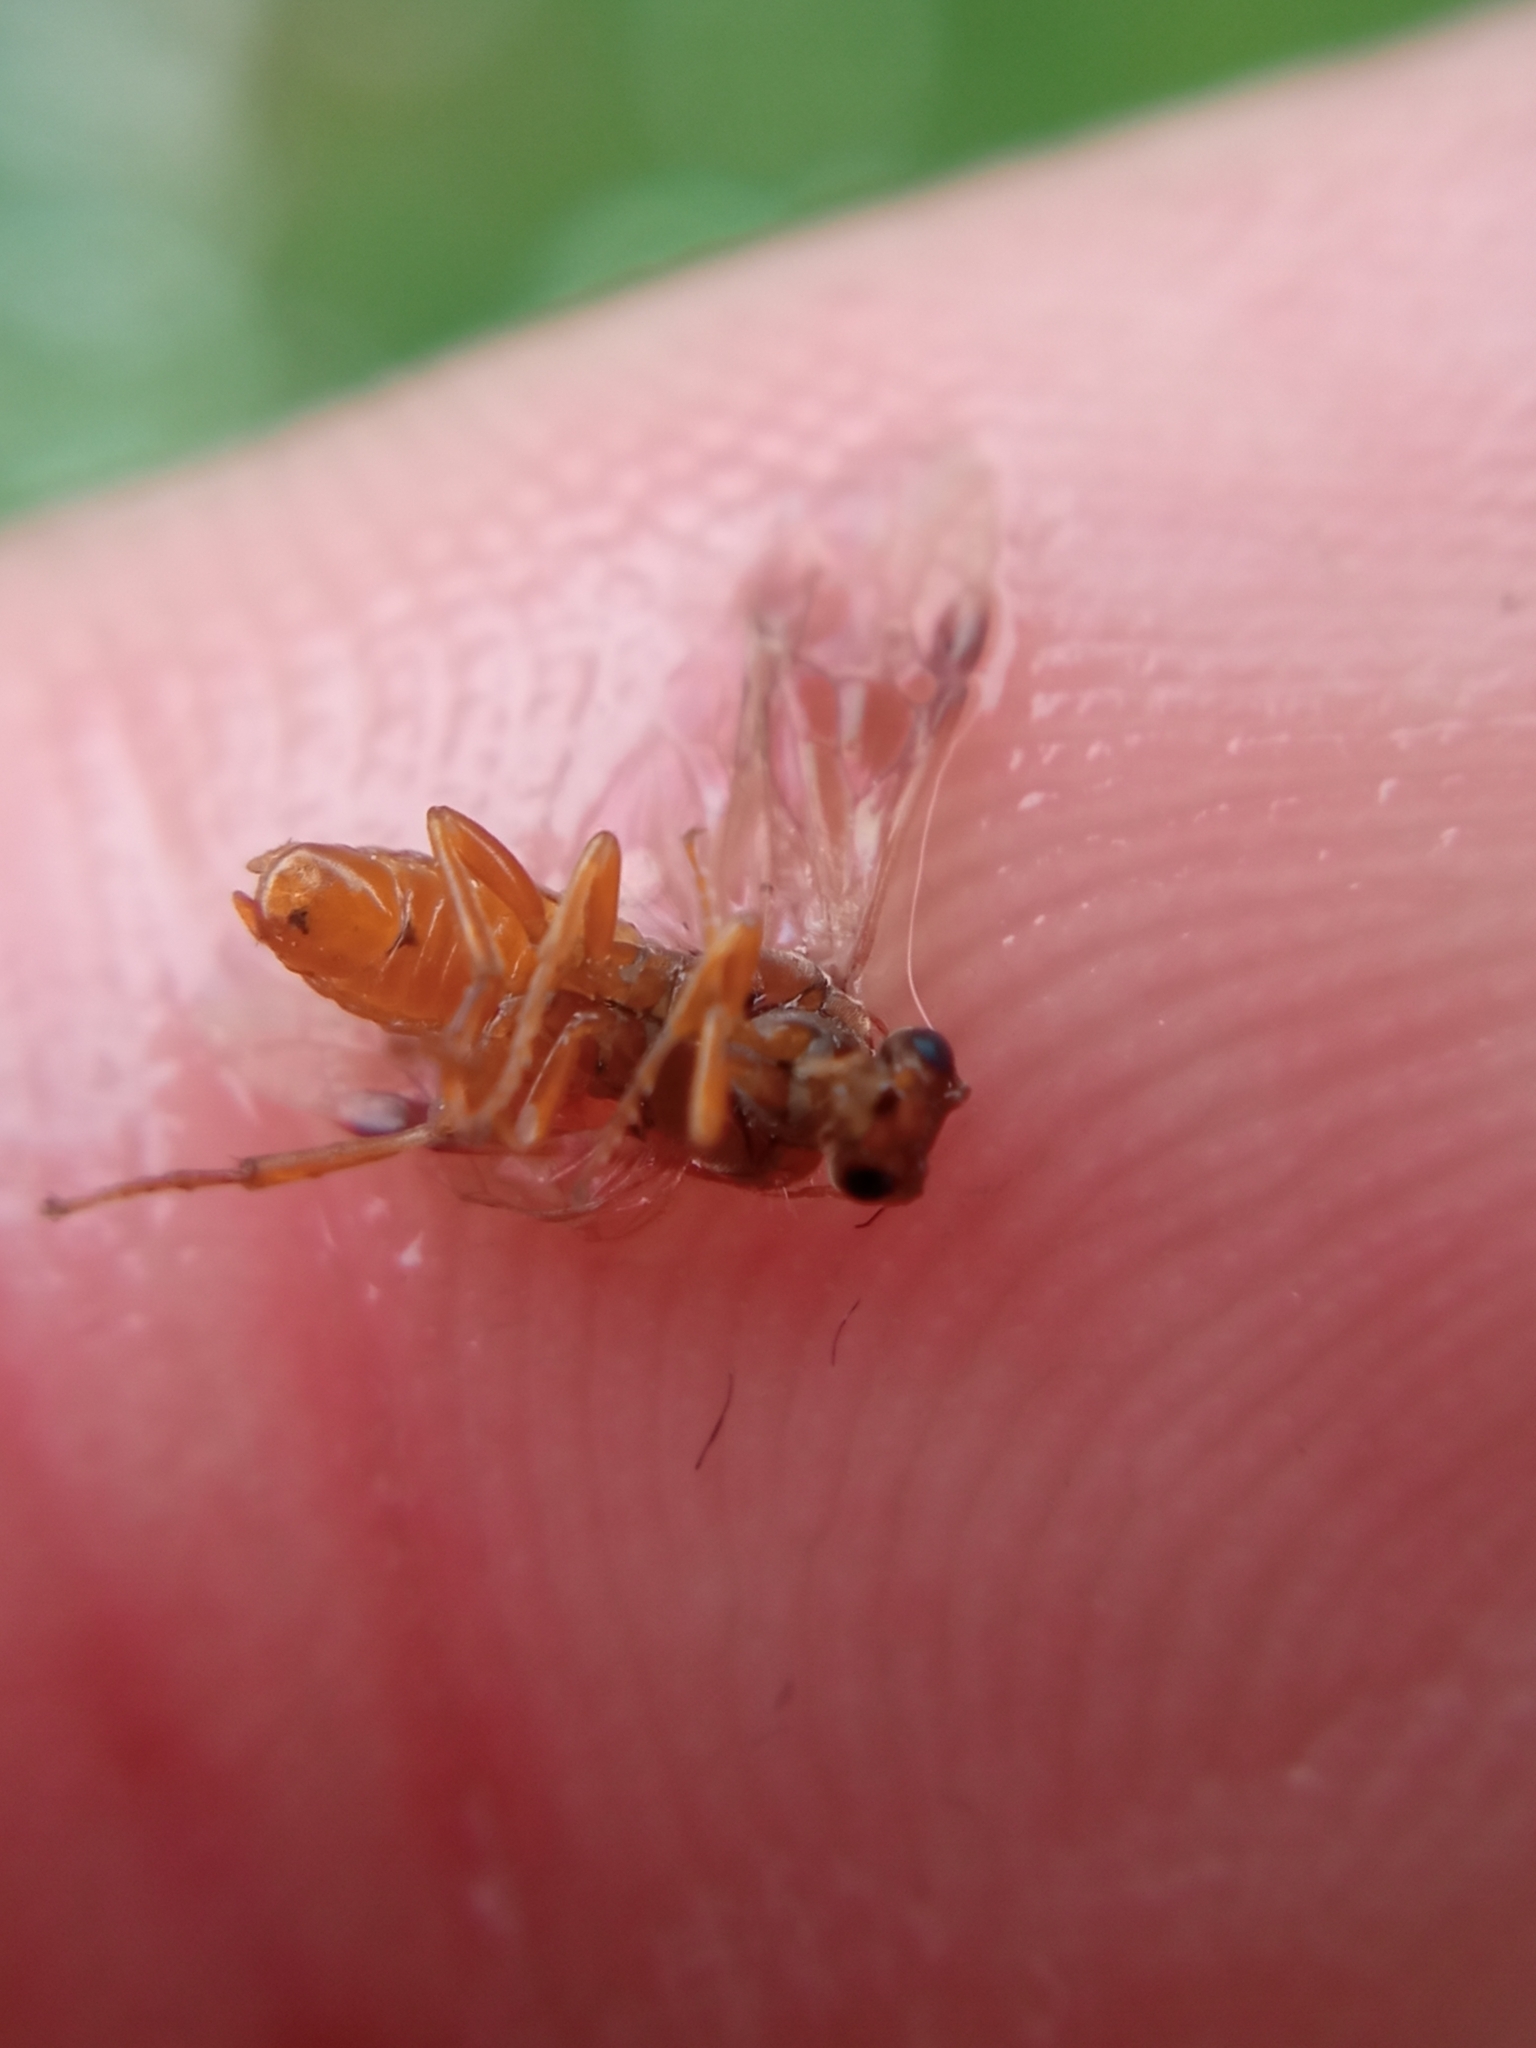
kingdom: Animalia
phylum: Arthropoda
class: Insecta
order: Hymenoptera
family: Tenthredinidae
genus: Hoplocampa
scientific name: Hoplocampa flava
